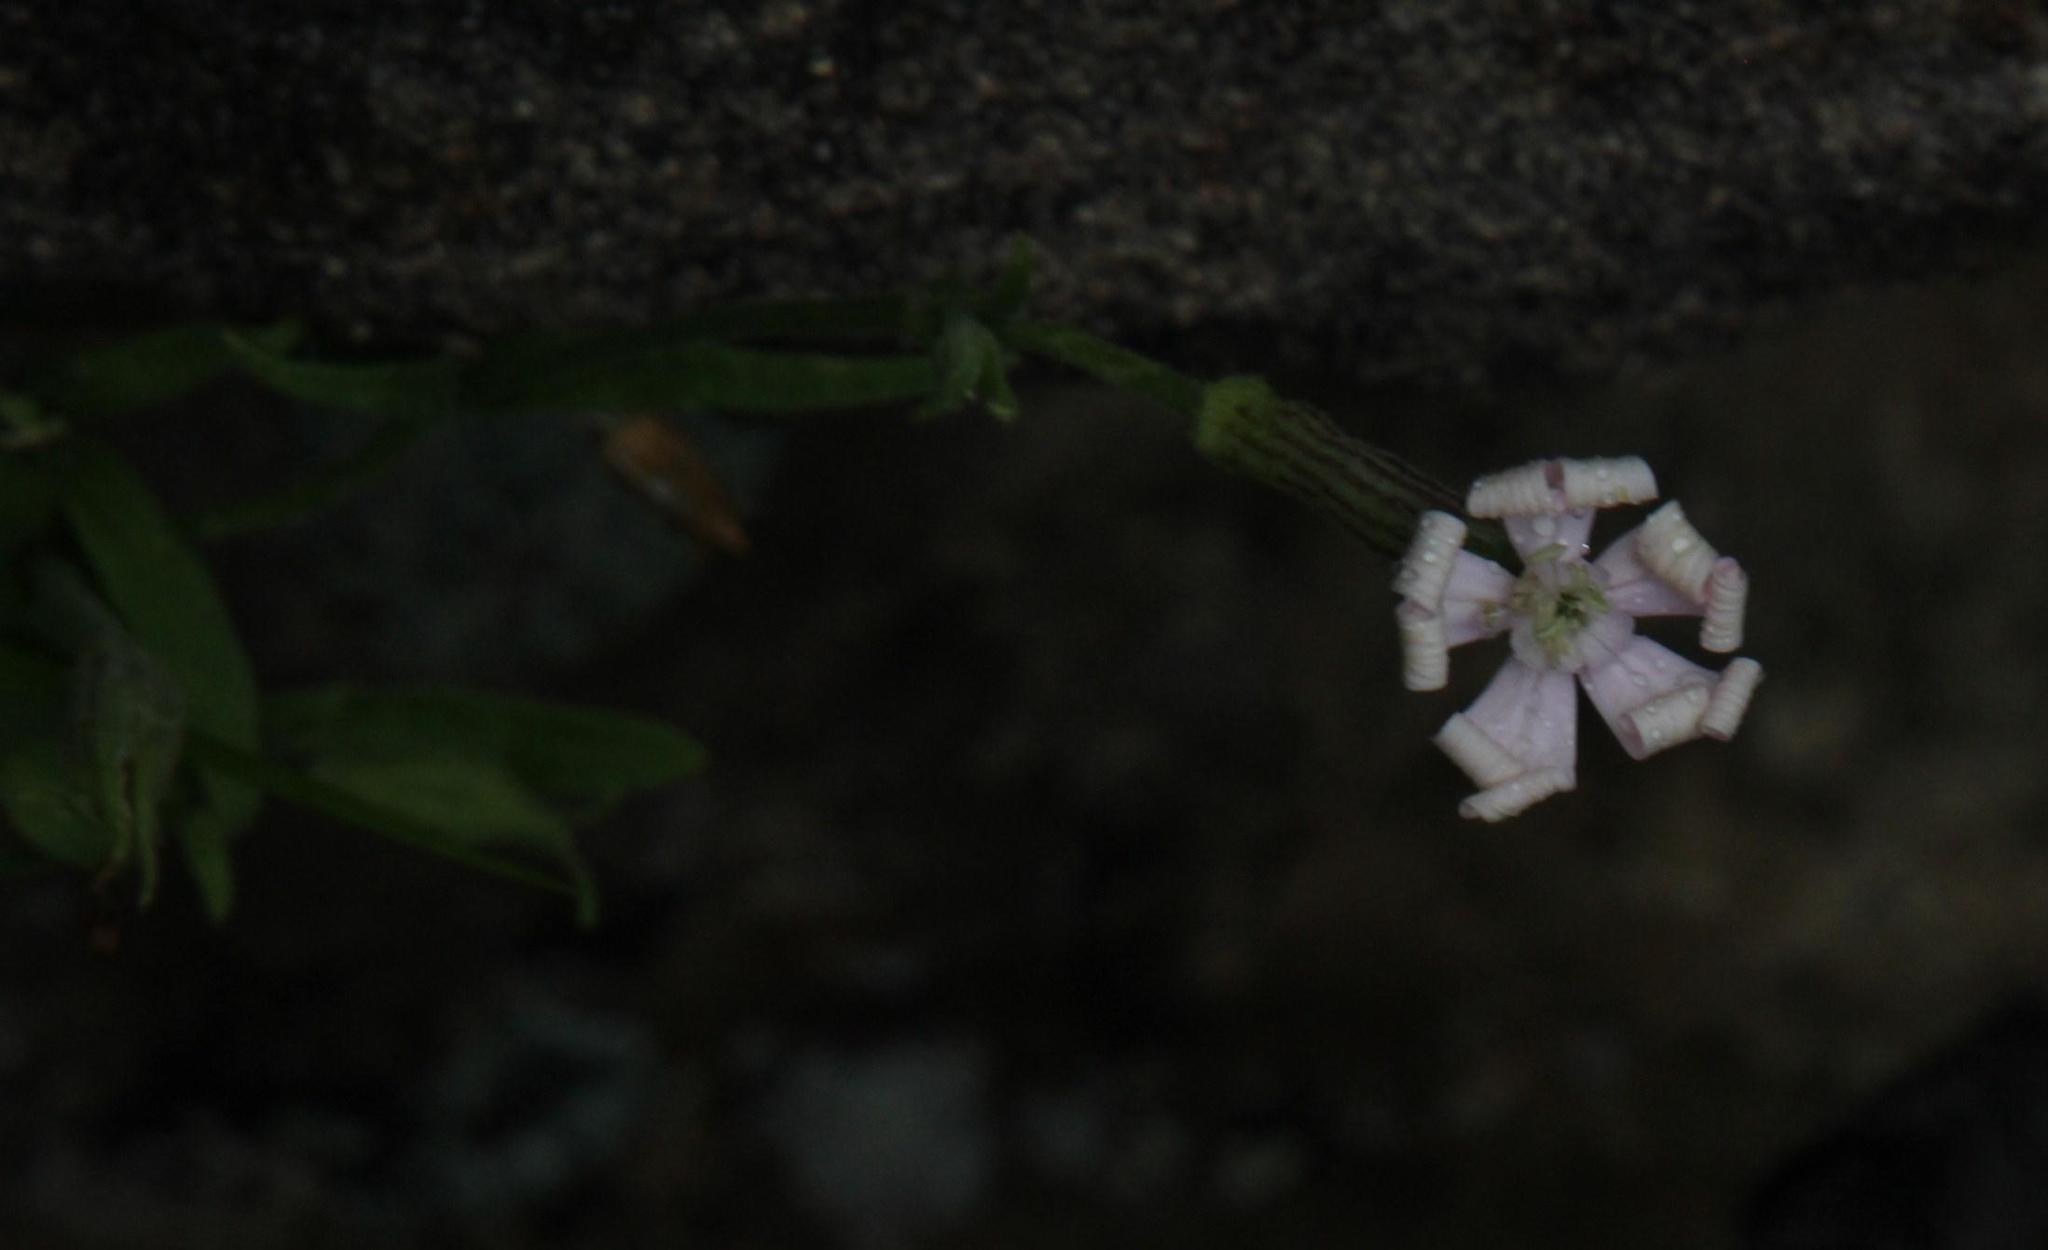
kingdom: Plantae
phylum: Tracheophyta
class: Magnoliopsida
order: Caryophyllales
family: Caryophyllaceae
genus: Silene
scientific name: Silene undulata
